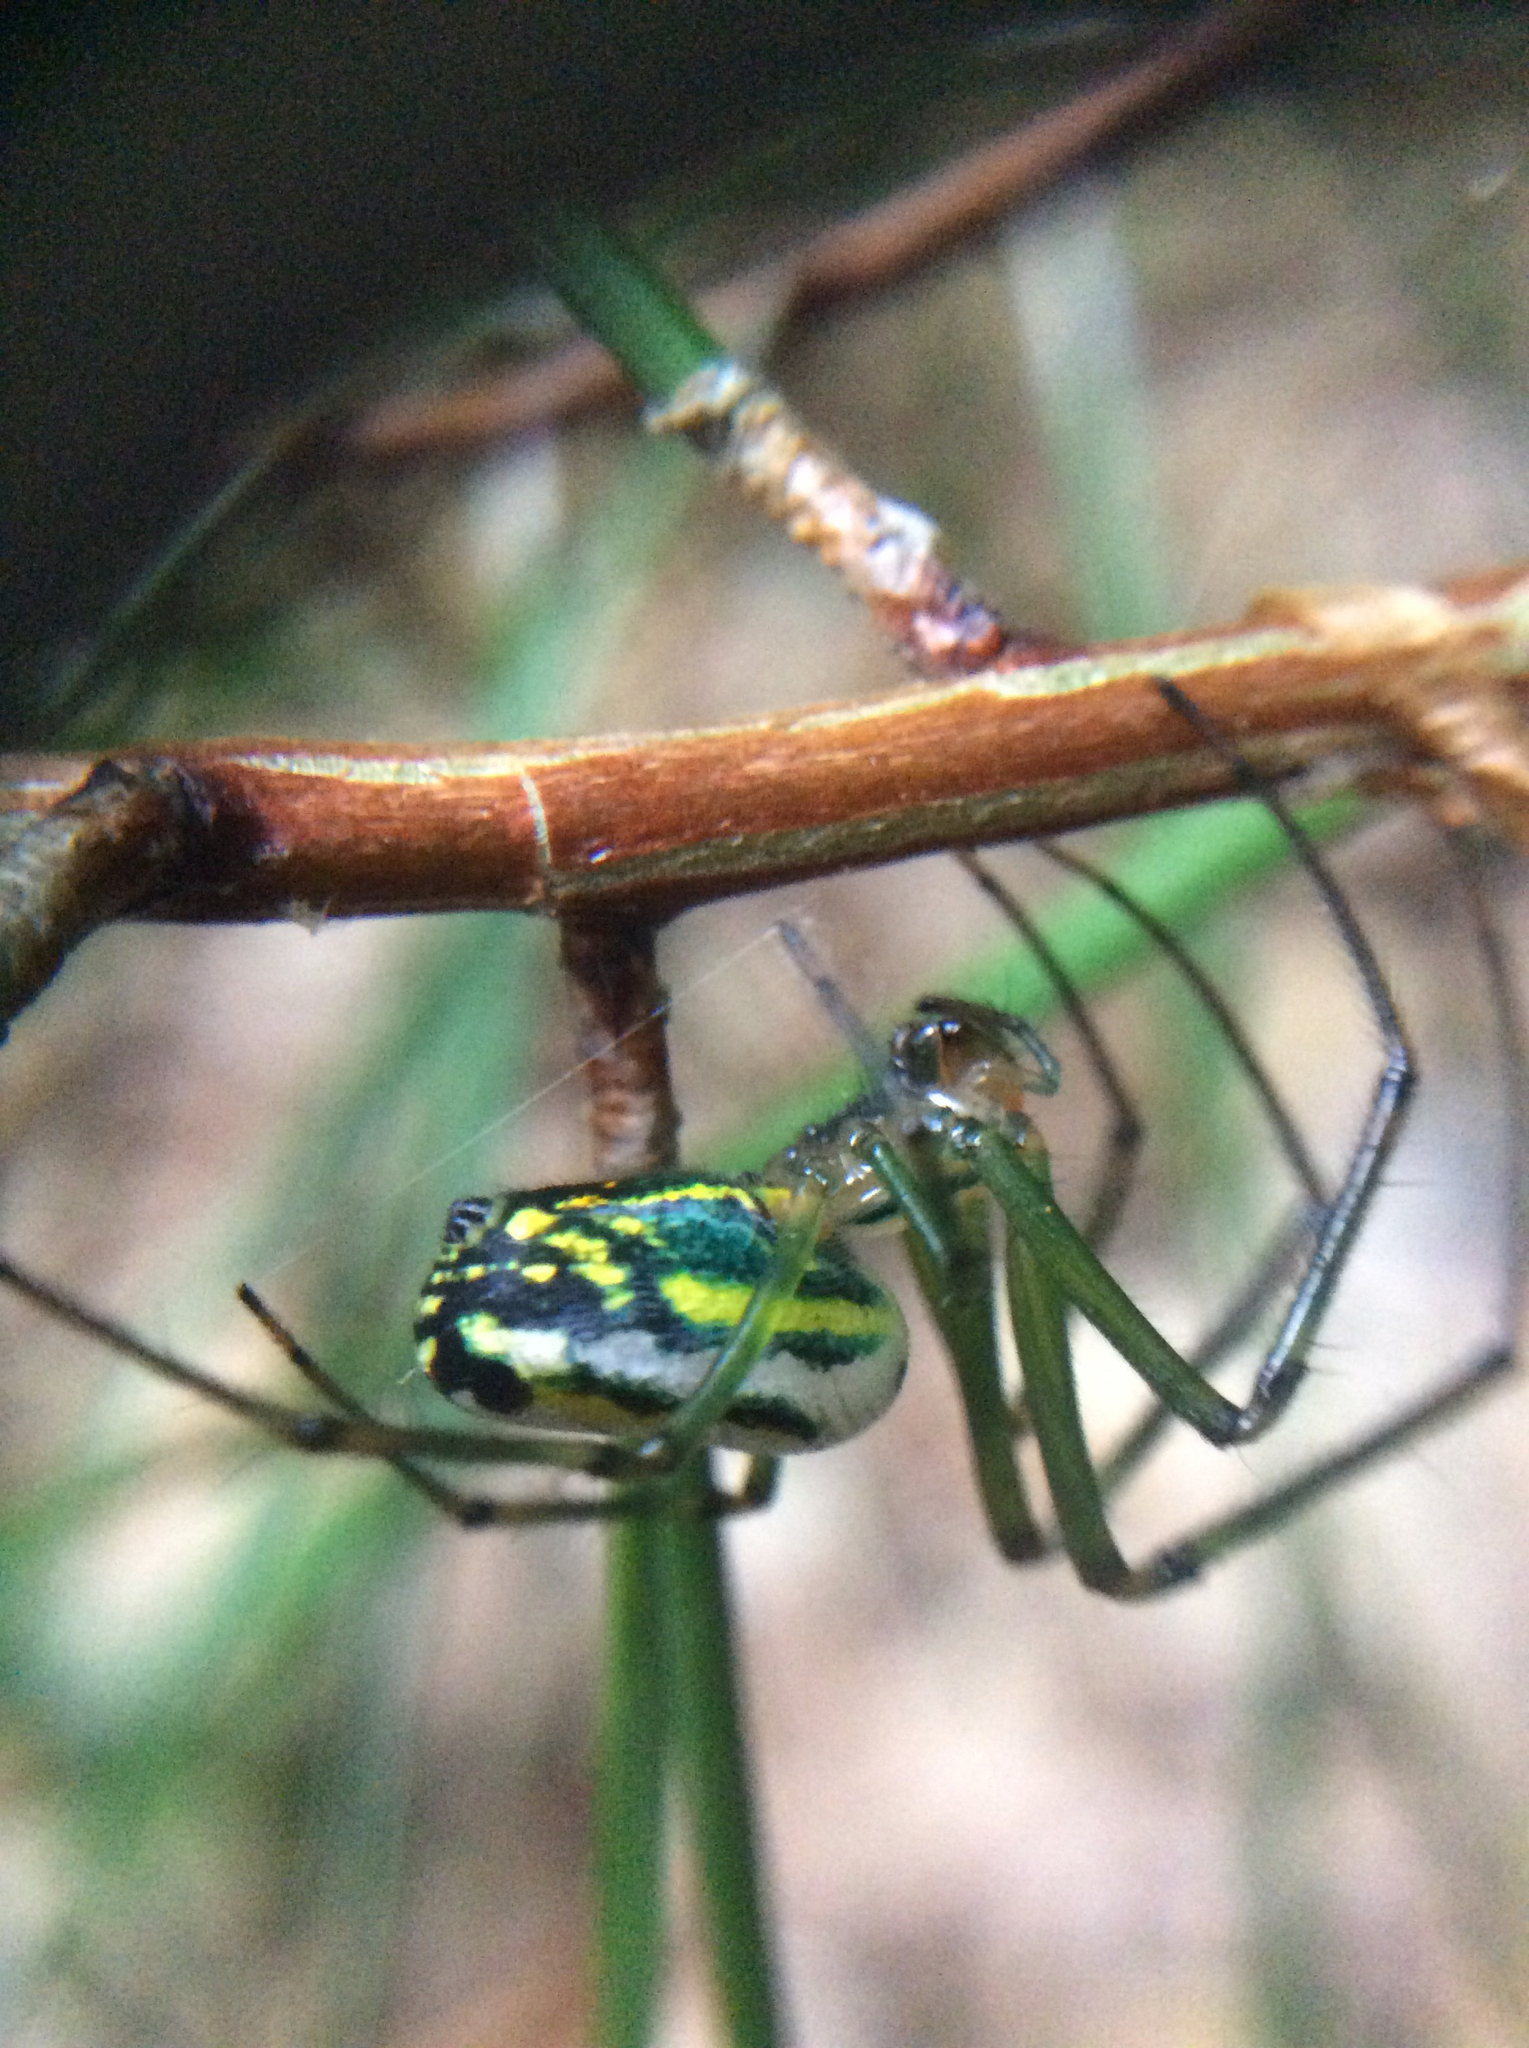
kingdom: Animalia
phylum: Arthropoda
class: Arachnida
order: Araneae
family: Tetragnathidae
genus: Leucauge
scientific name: Leucauge venusta
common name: Longjawed orb weavers
